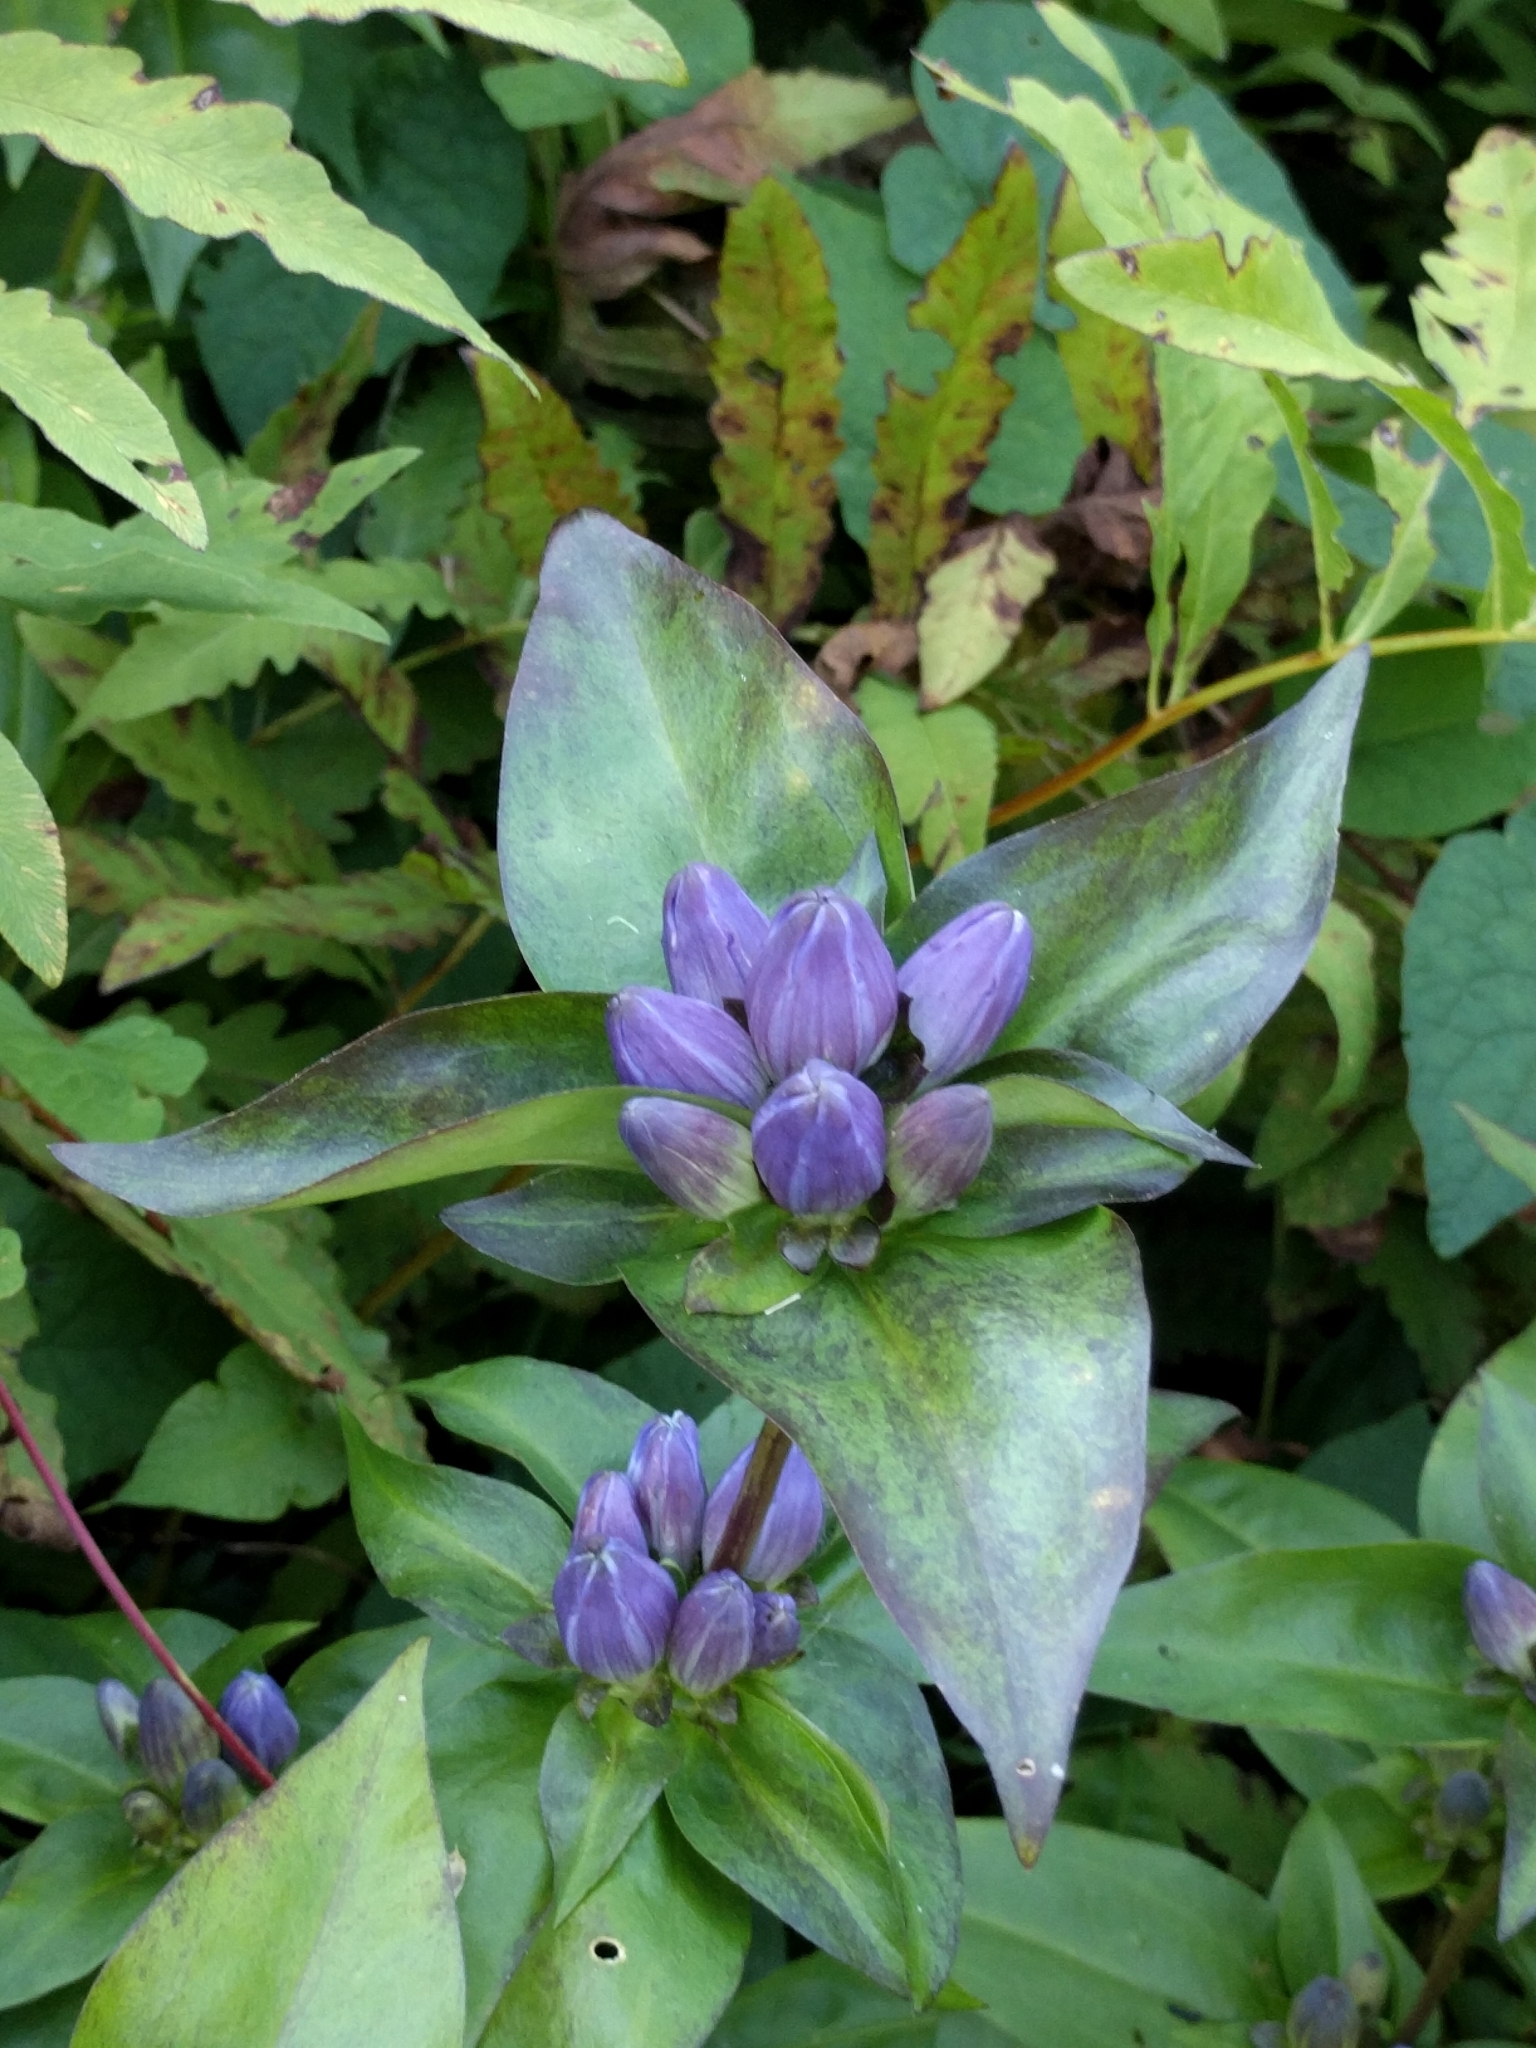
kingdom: Plantae
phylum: Tracheophyta
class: Magnoliopsida
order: Gentianales
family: Gentianaceae
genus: Gentiana
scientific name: Gentiana clausa
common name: Blind gentian
